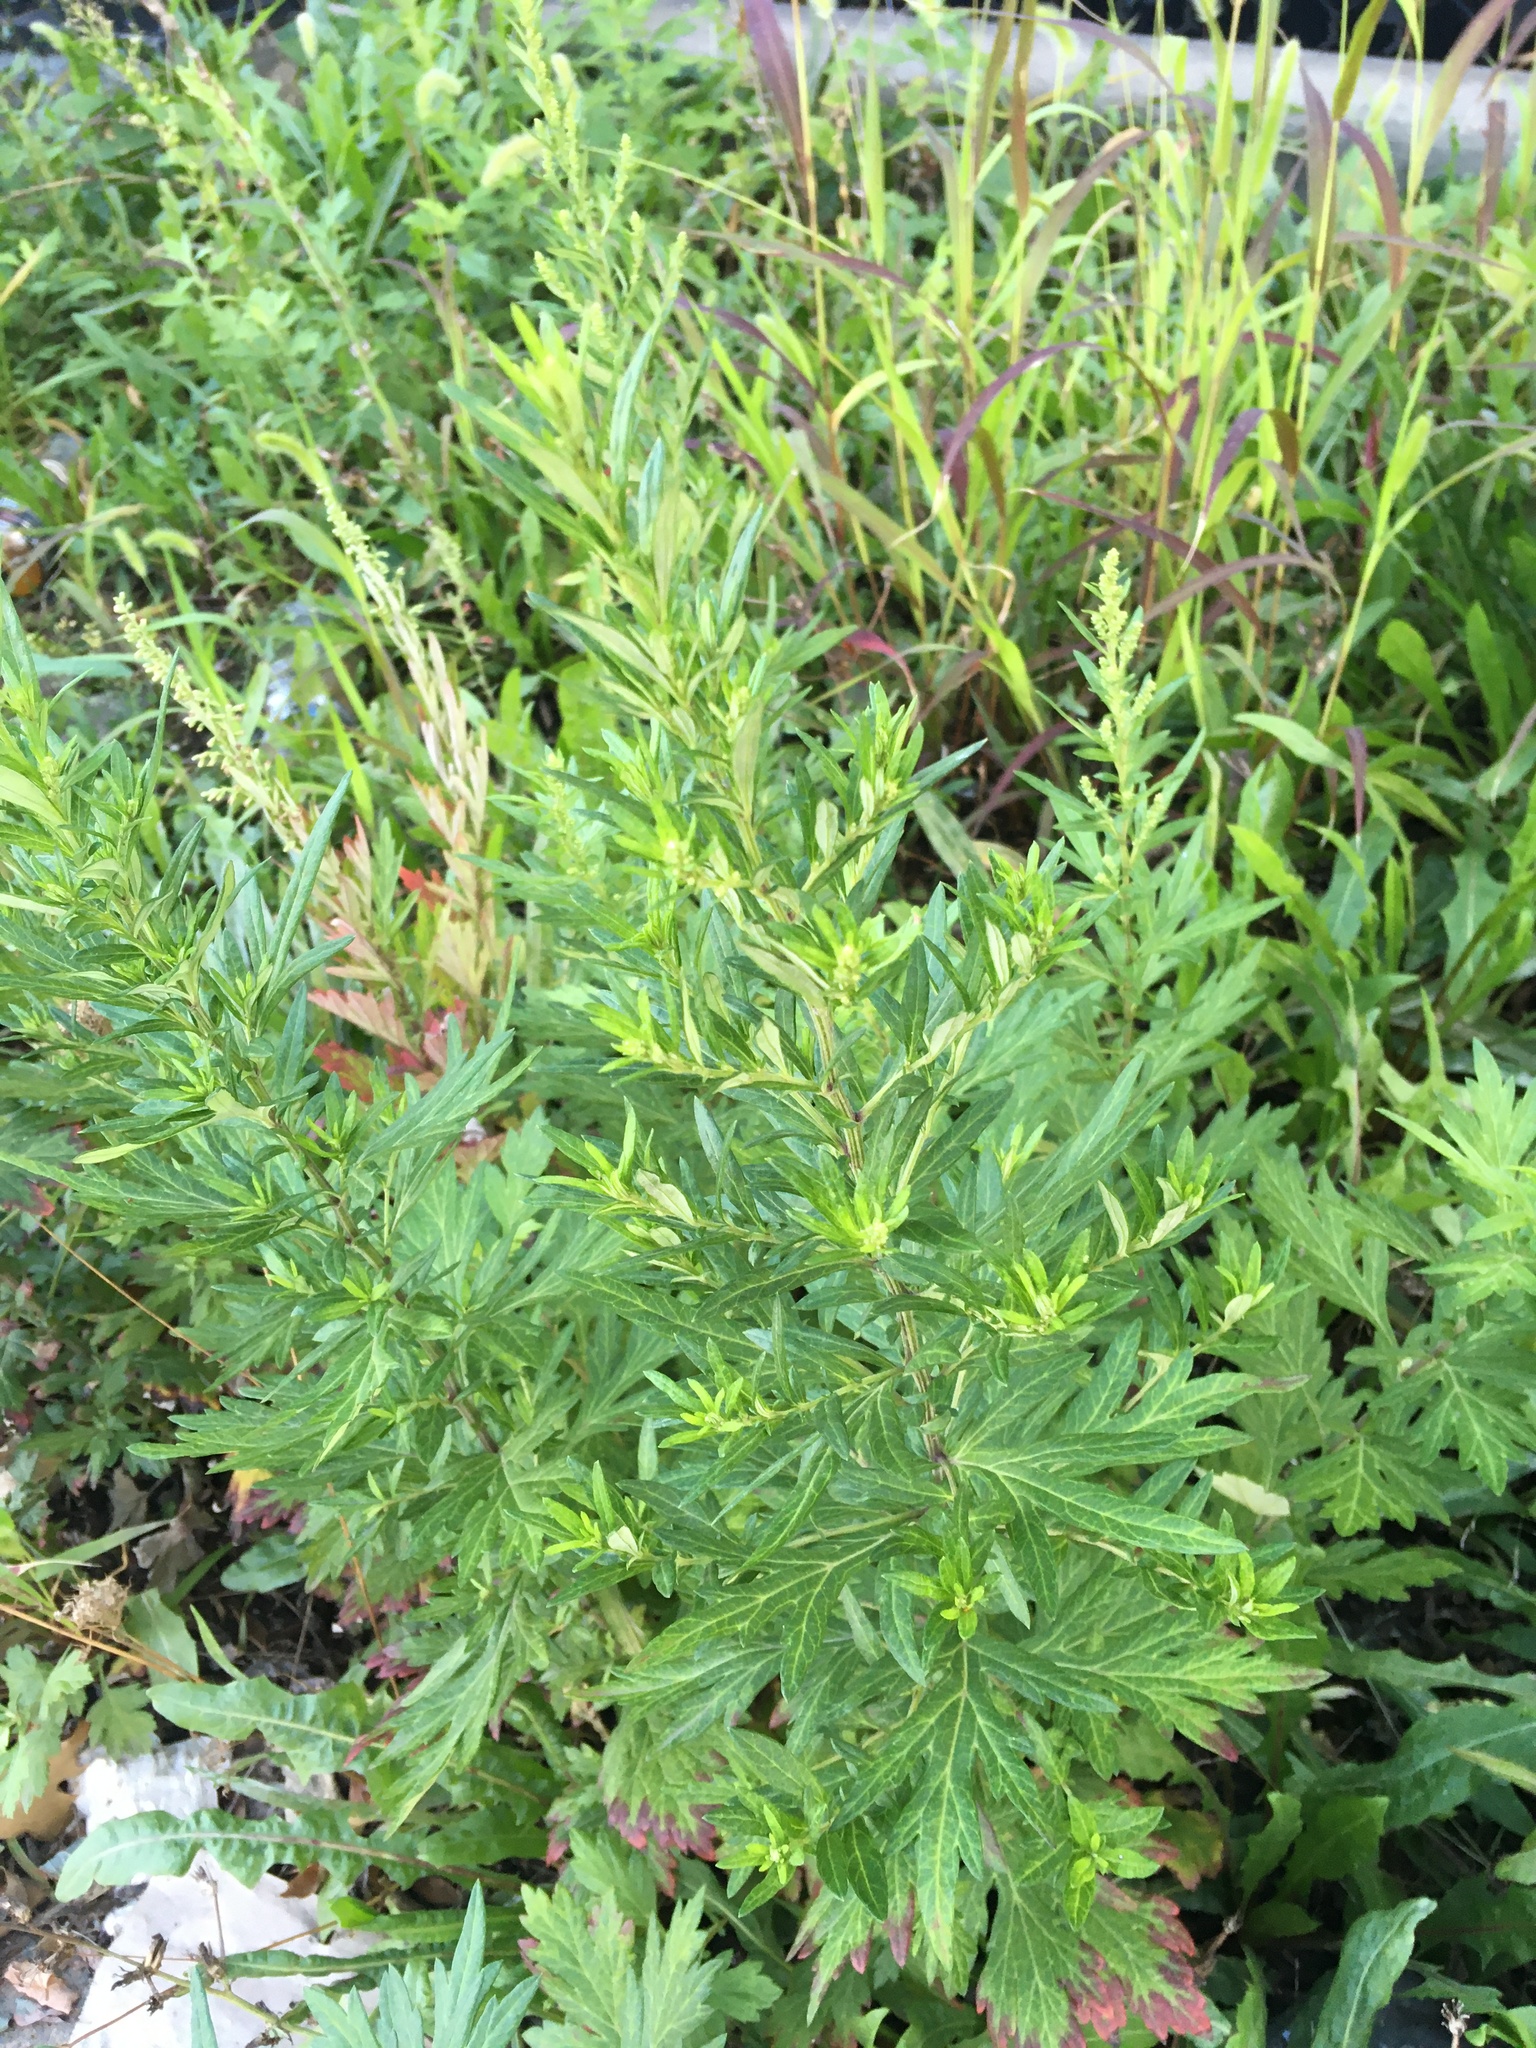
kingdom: Plantae
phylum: Tracheophyta
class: Magnoliopsida
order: Asterales
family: Asteraceae
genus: Artemisia
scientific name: Artemisia vulgaris
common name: Mugwort
